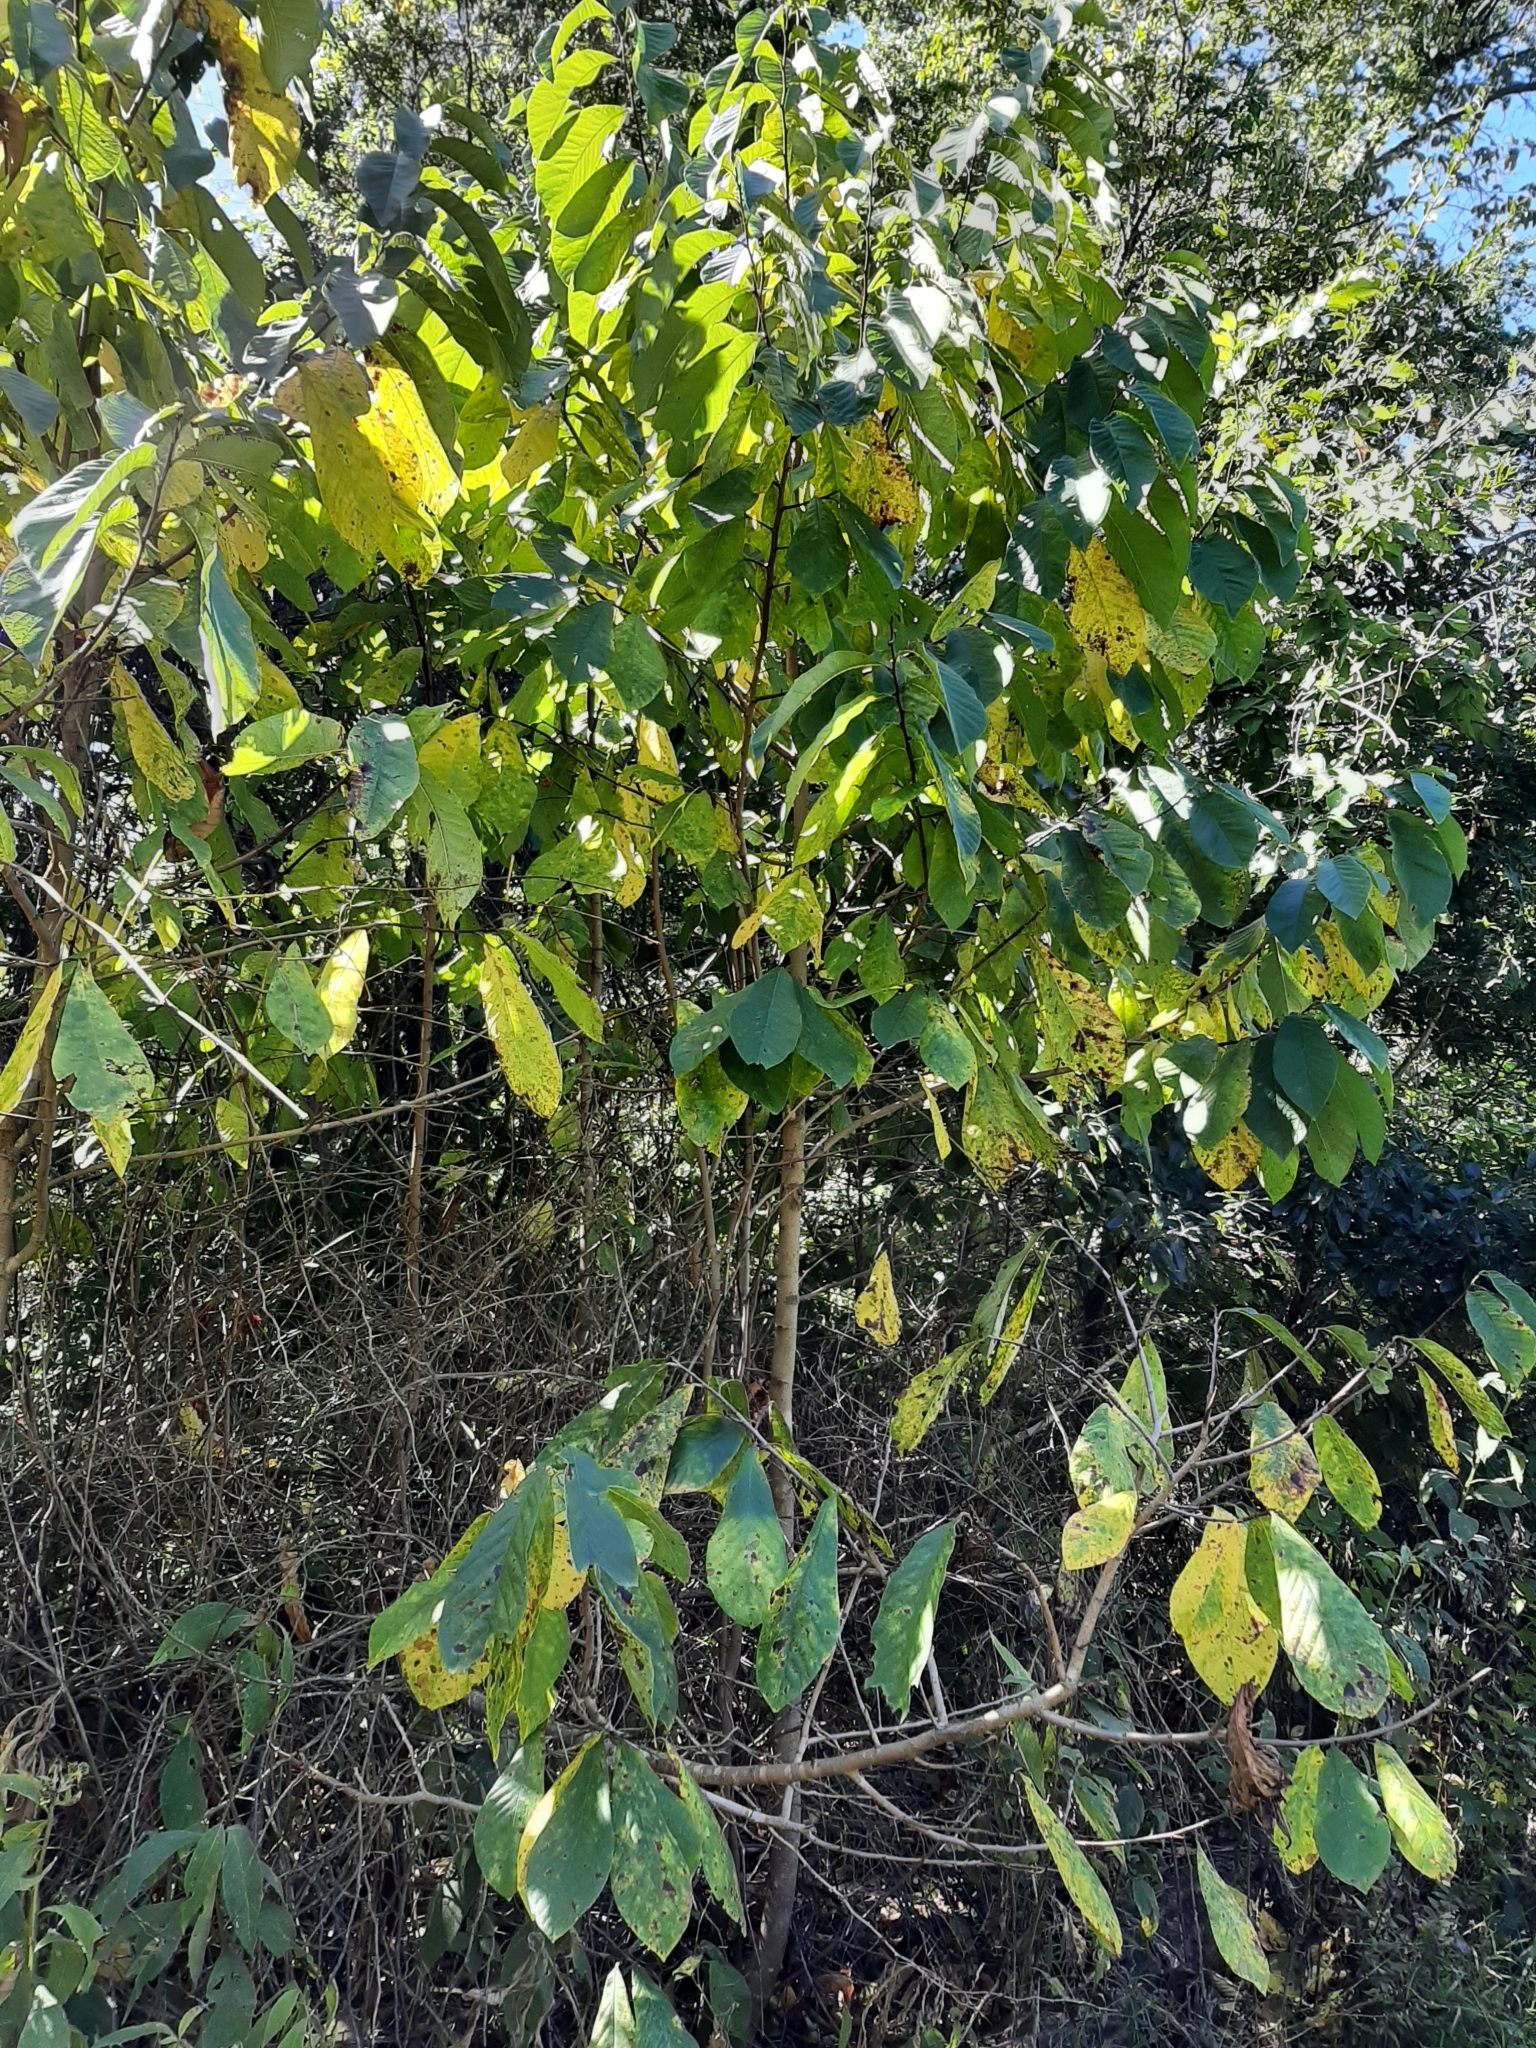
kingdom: Plantae
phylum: Tracheophyta
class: Magnoliopsida
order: Magnoliales
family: Annonaceae
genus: Asimina
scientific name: Asimina triloba
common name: Dog-banana
